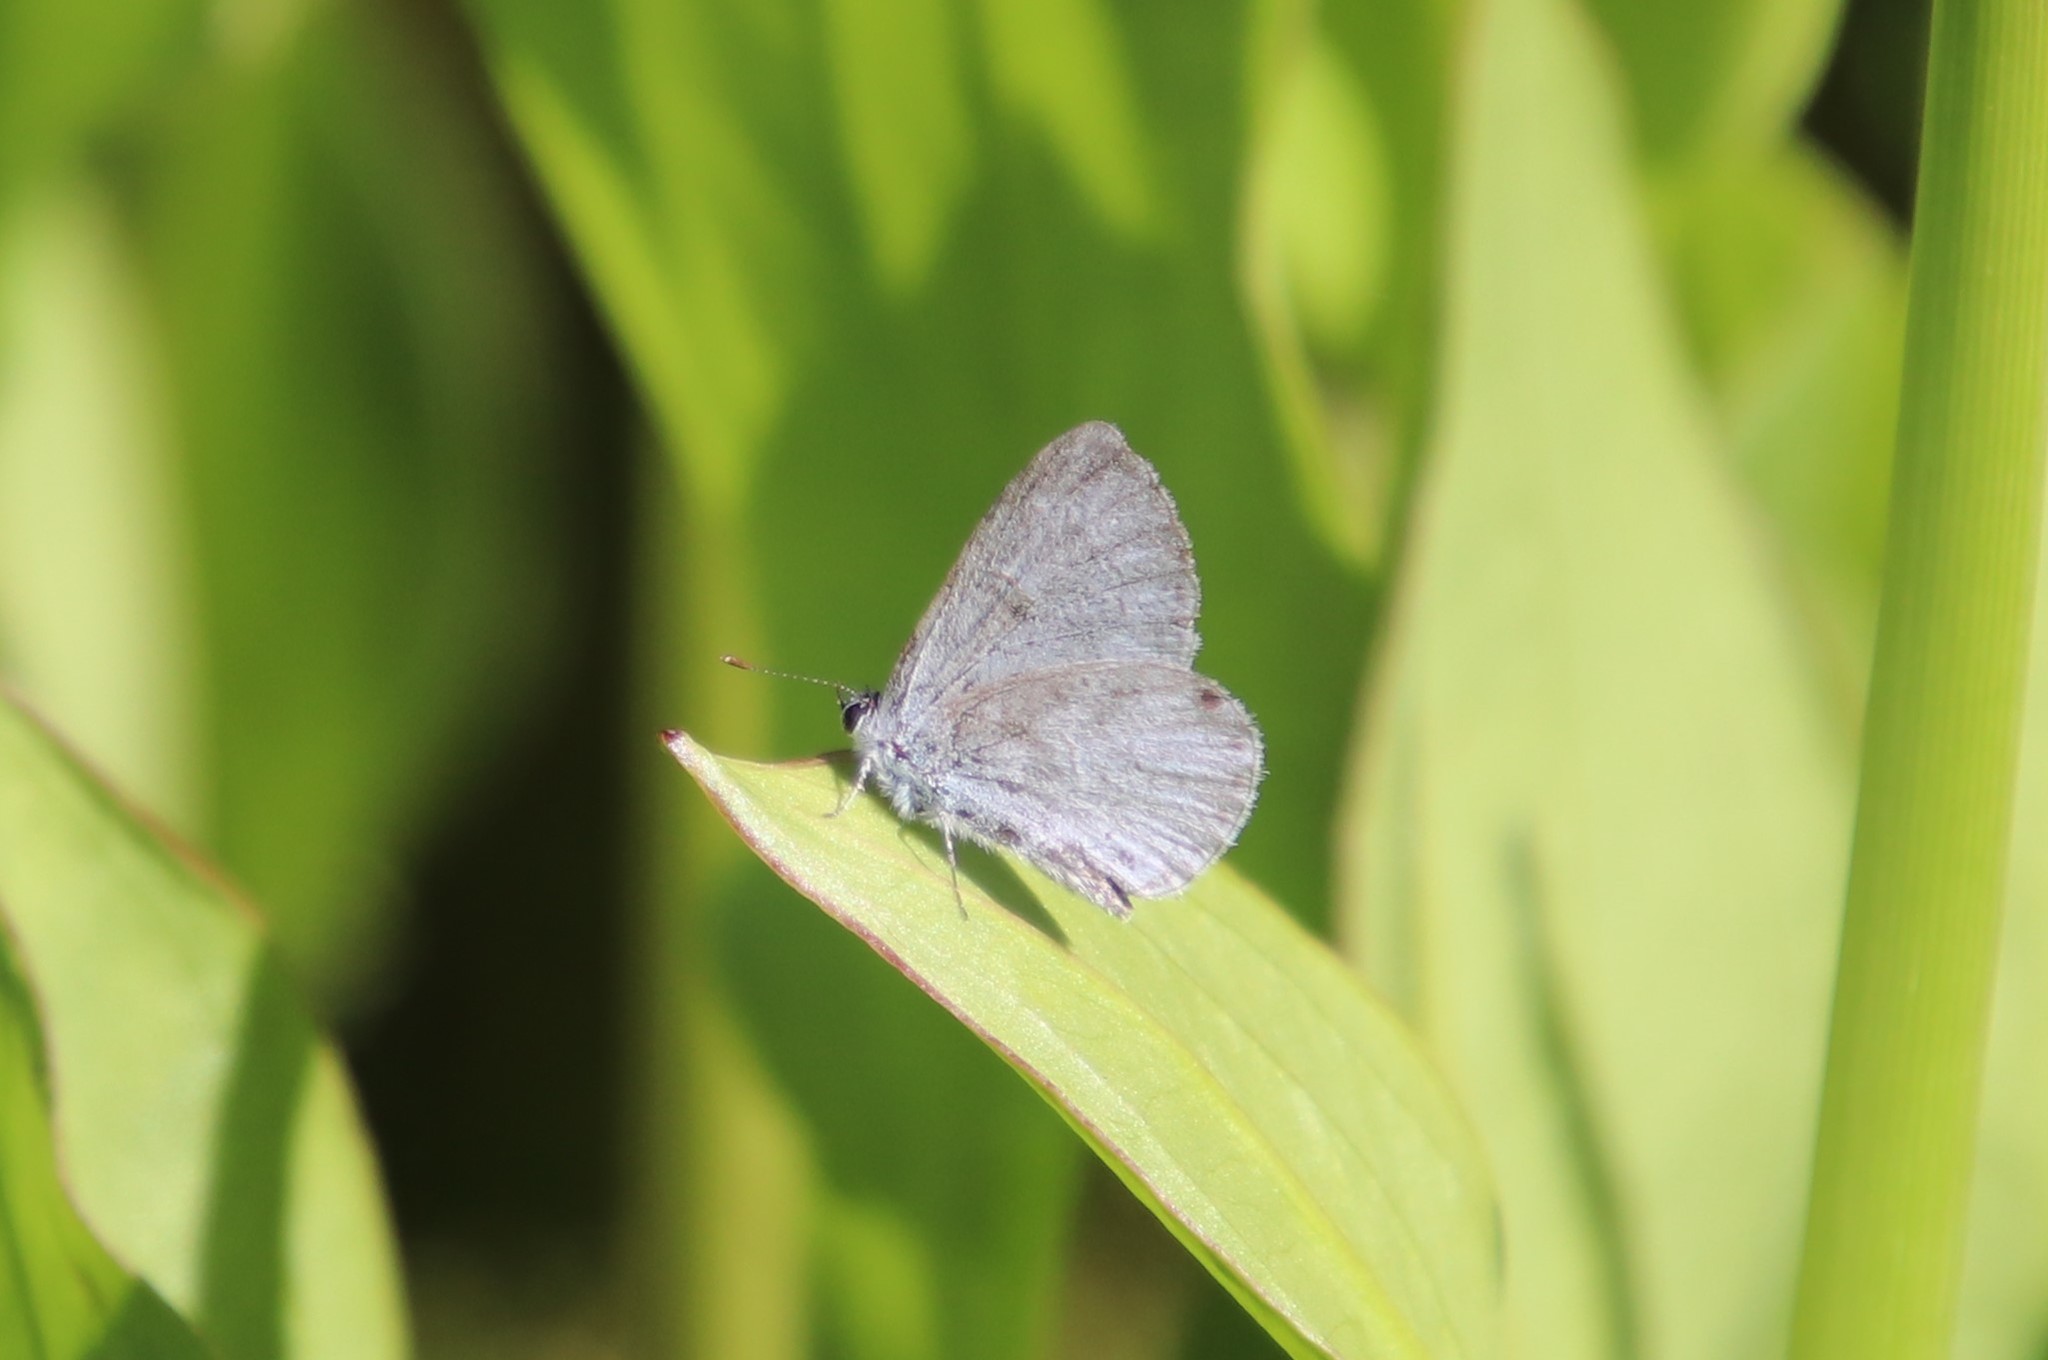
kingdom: Animalia
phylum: Arthropoda
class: Insecta
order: Lepidoptera
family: Lycaenidae
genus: Celastrina
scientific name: Celastrina ladon
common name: Spring azure
